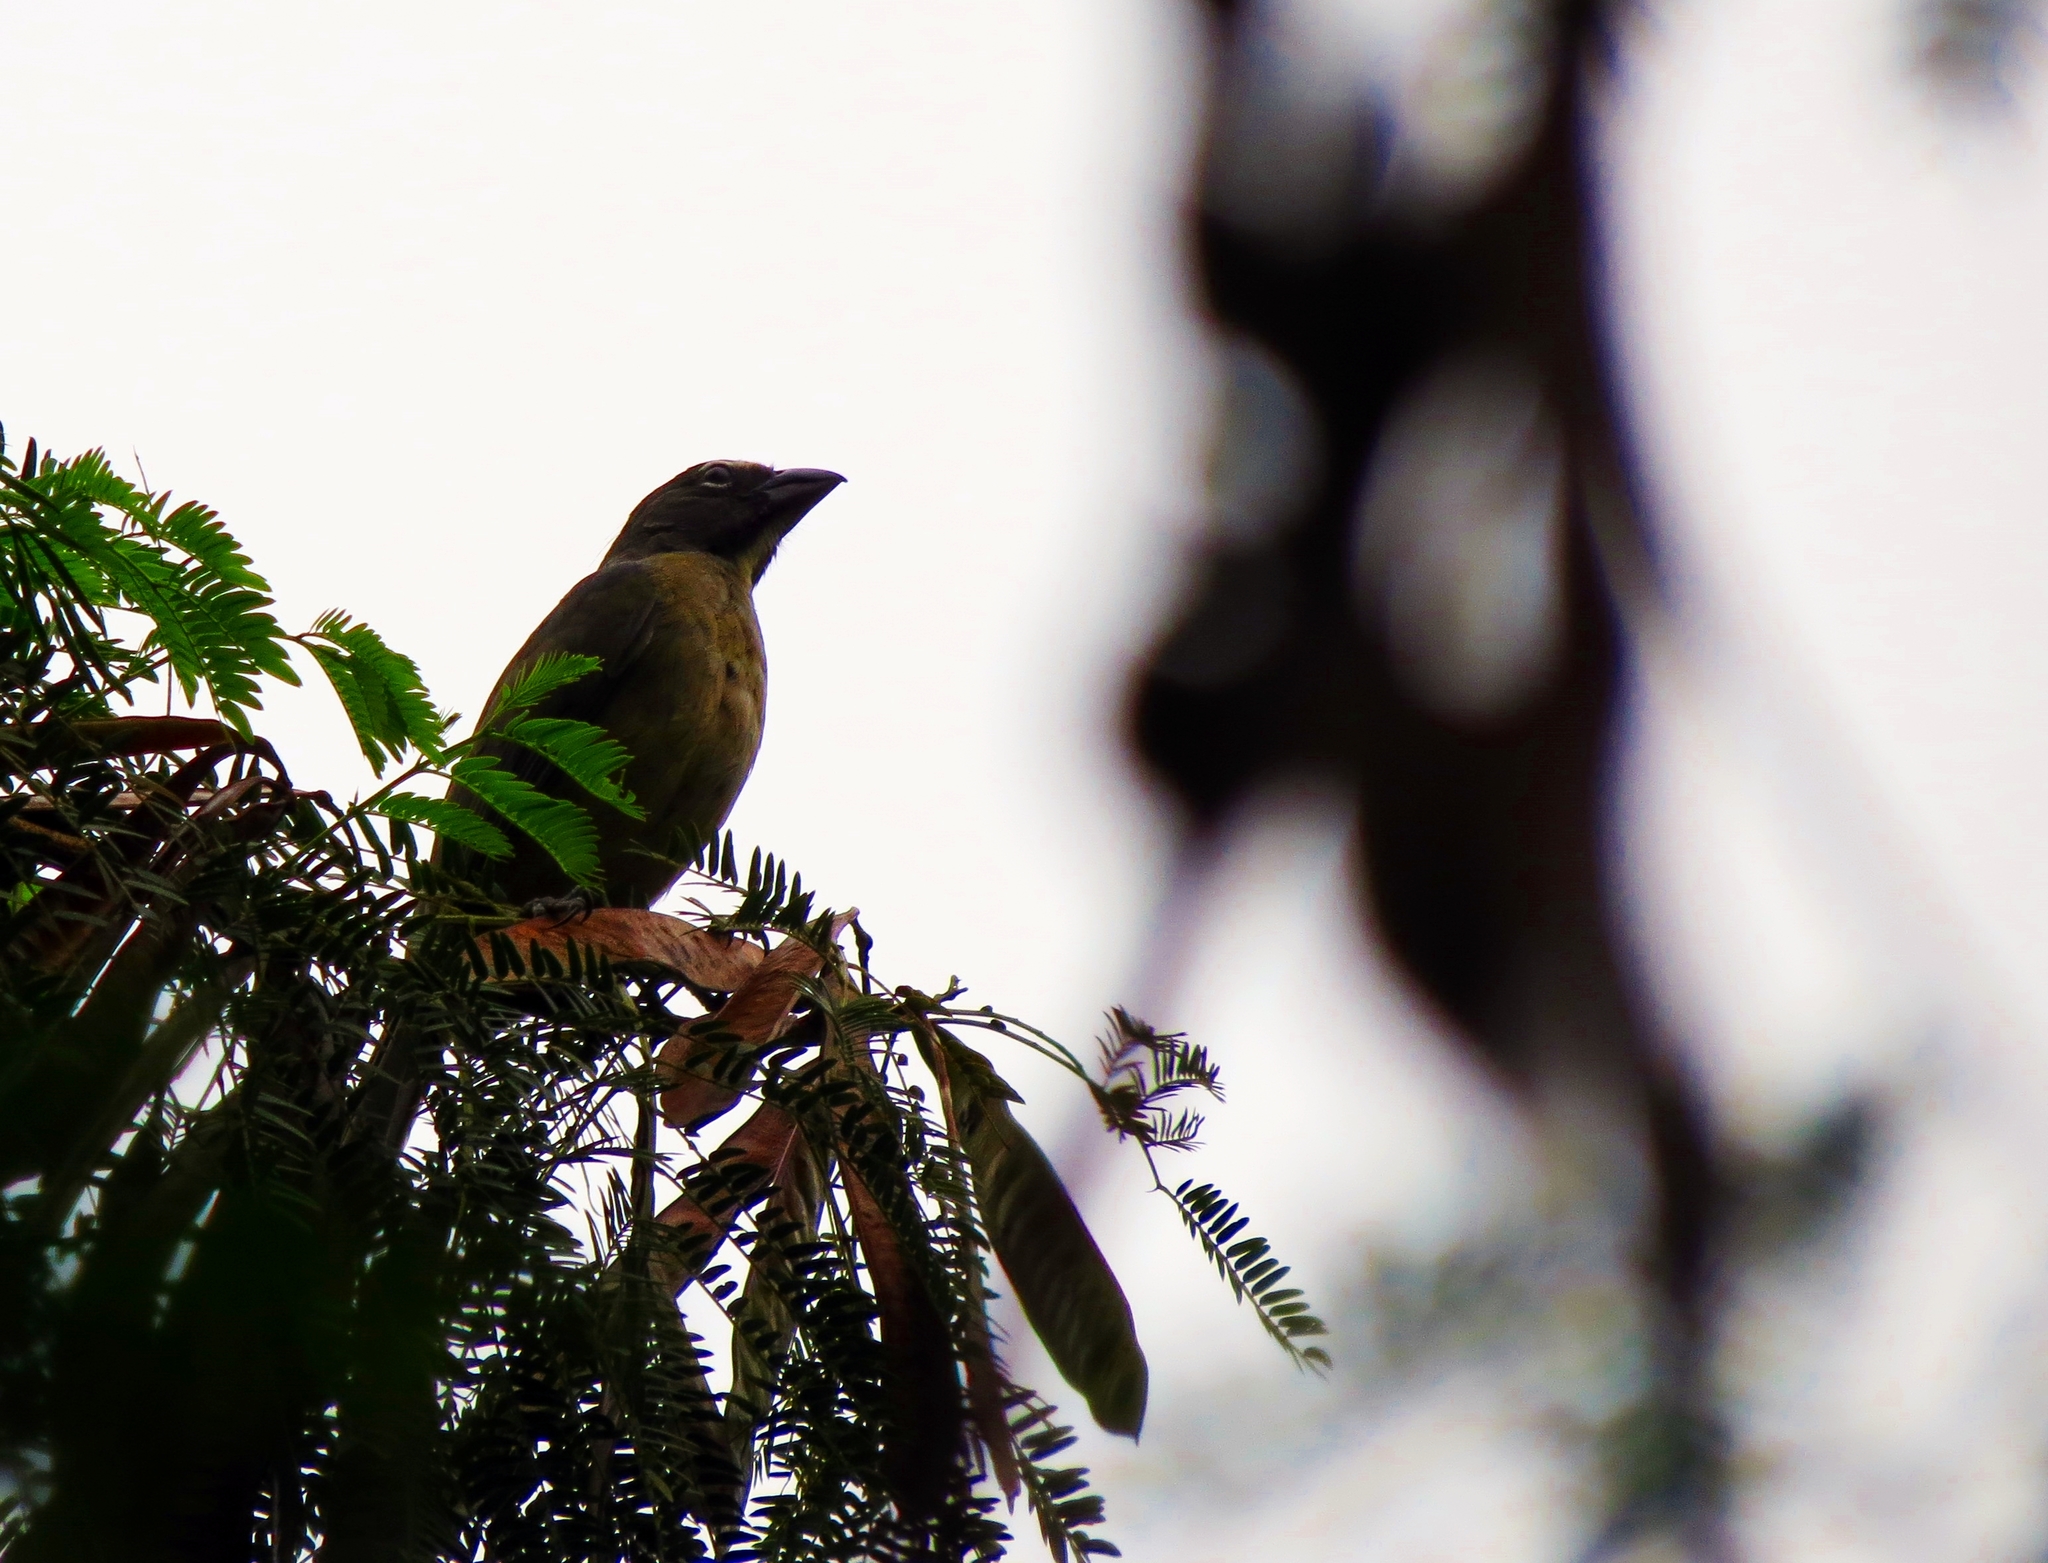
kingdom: Animalia
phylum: Chordata
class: Aves
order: Passeriformes
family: Thraupidae
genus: Saltator
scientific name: Saltator striatipectus
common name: Streaked saltator
